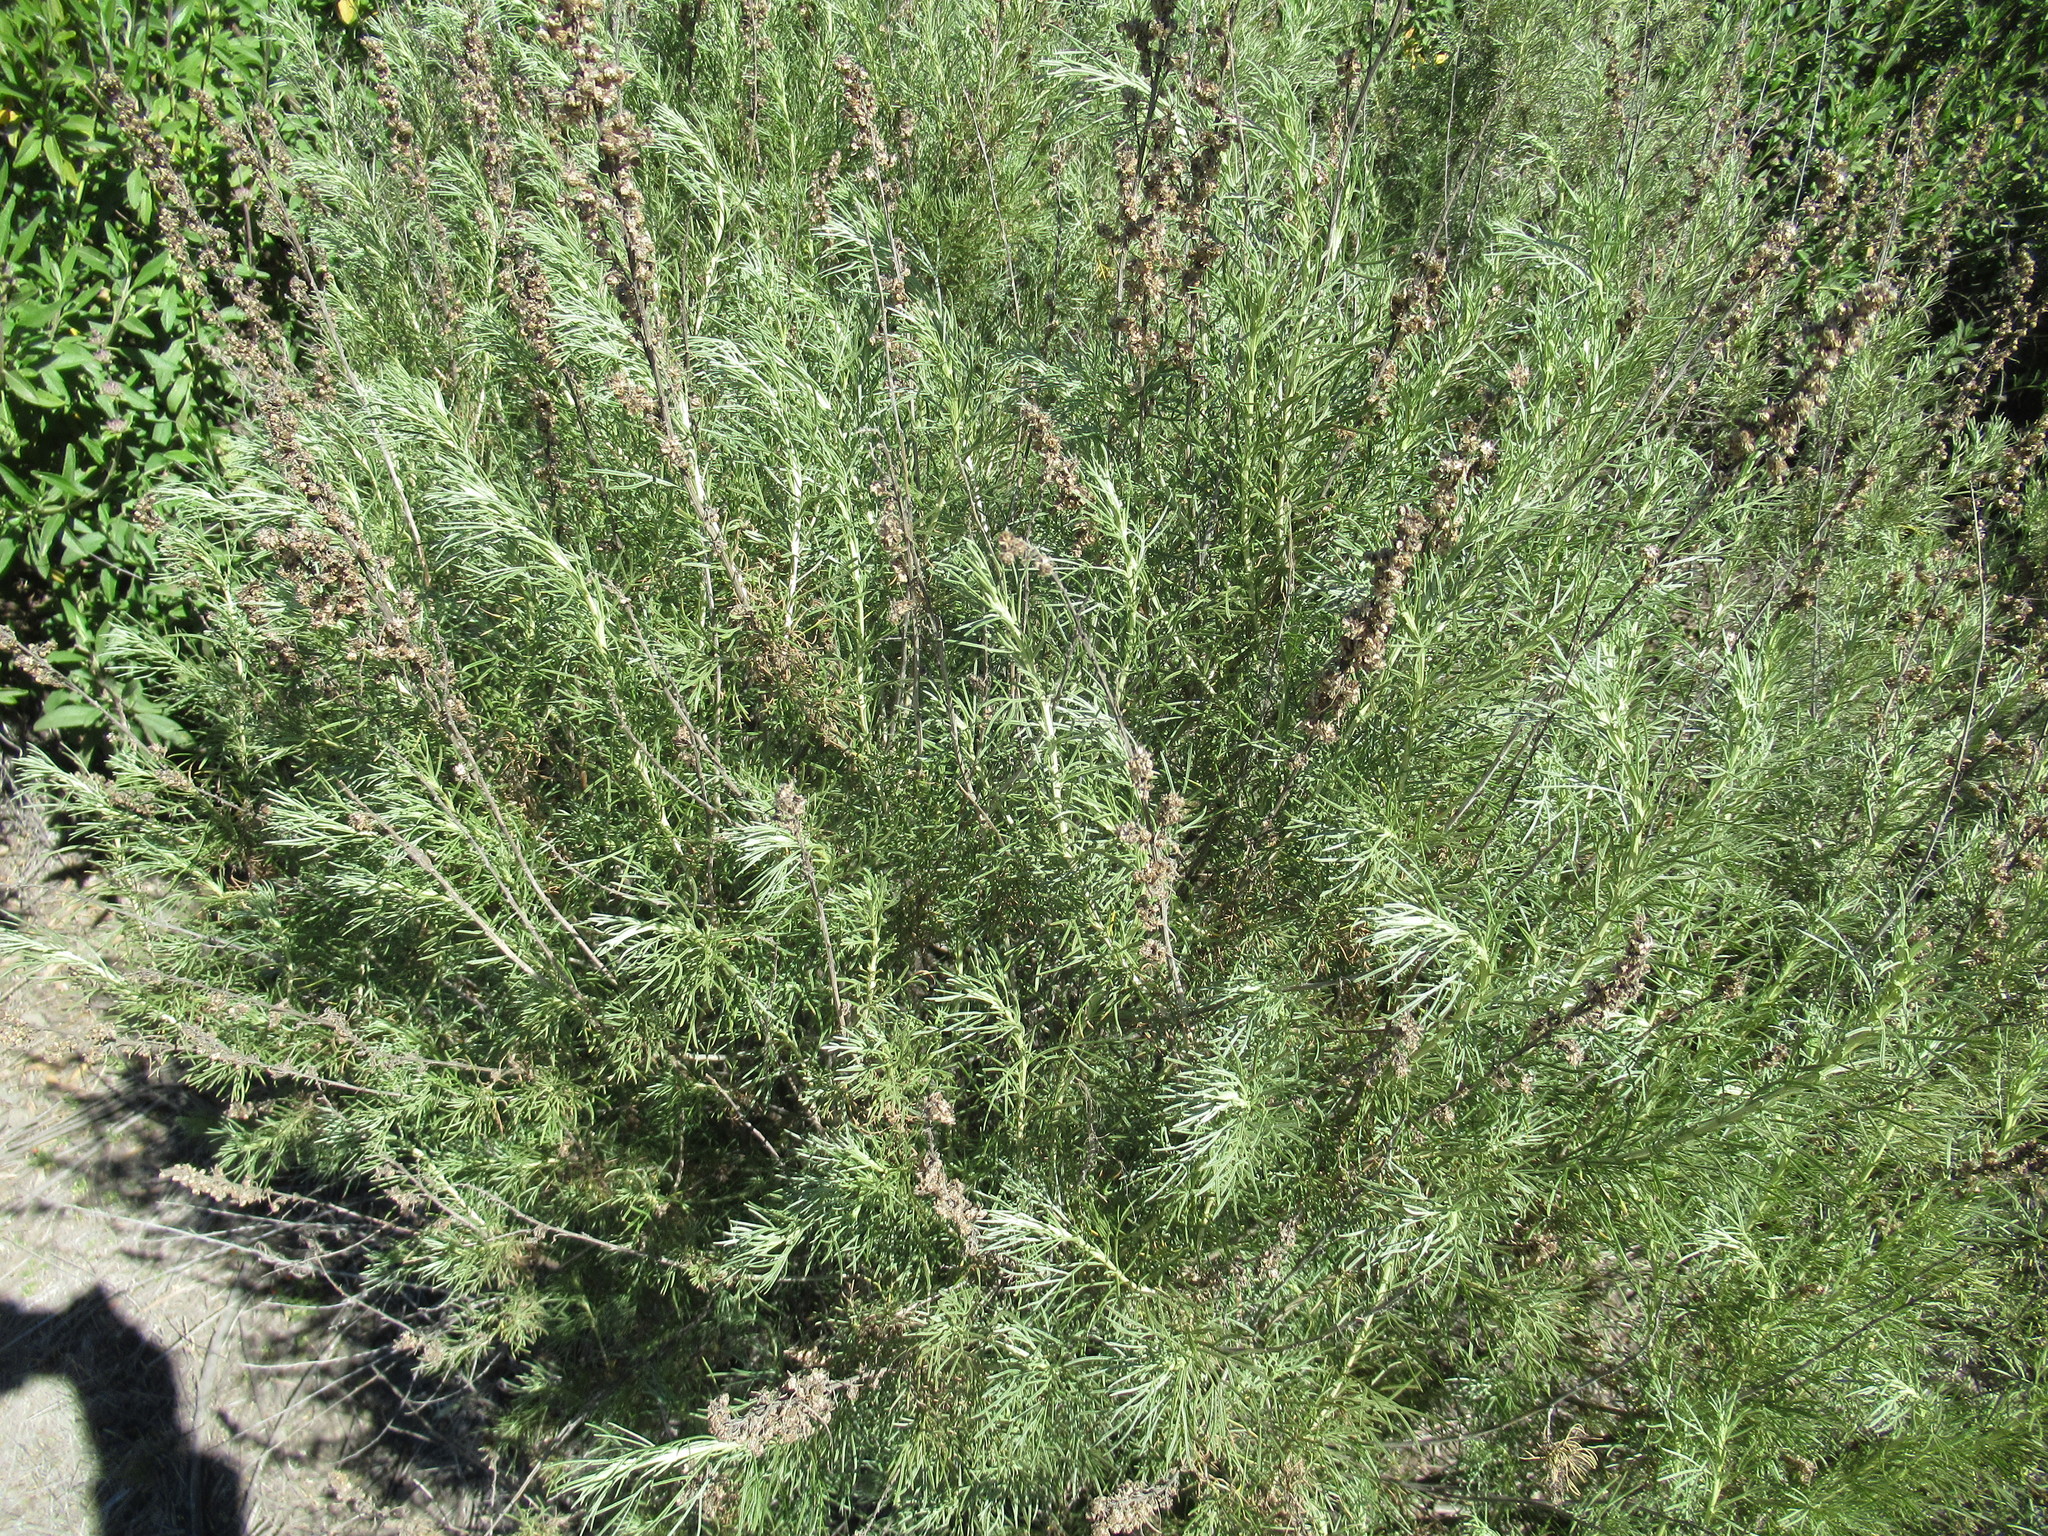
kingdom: Plantae
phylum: Tracheophyta
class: Magnoliopsida
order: Asterales
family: Asteraceae
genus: Artemisia
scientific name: Artemisia californica
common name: California sagebrush
